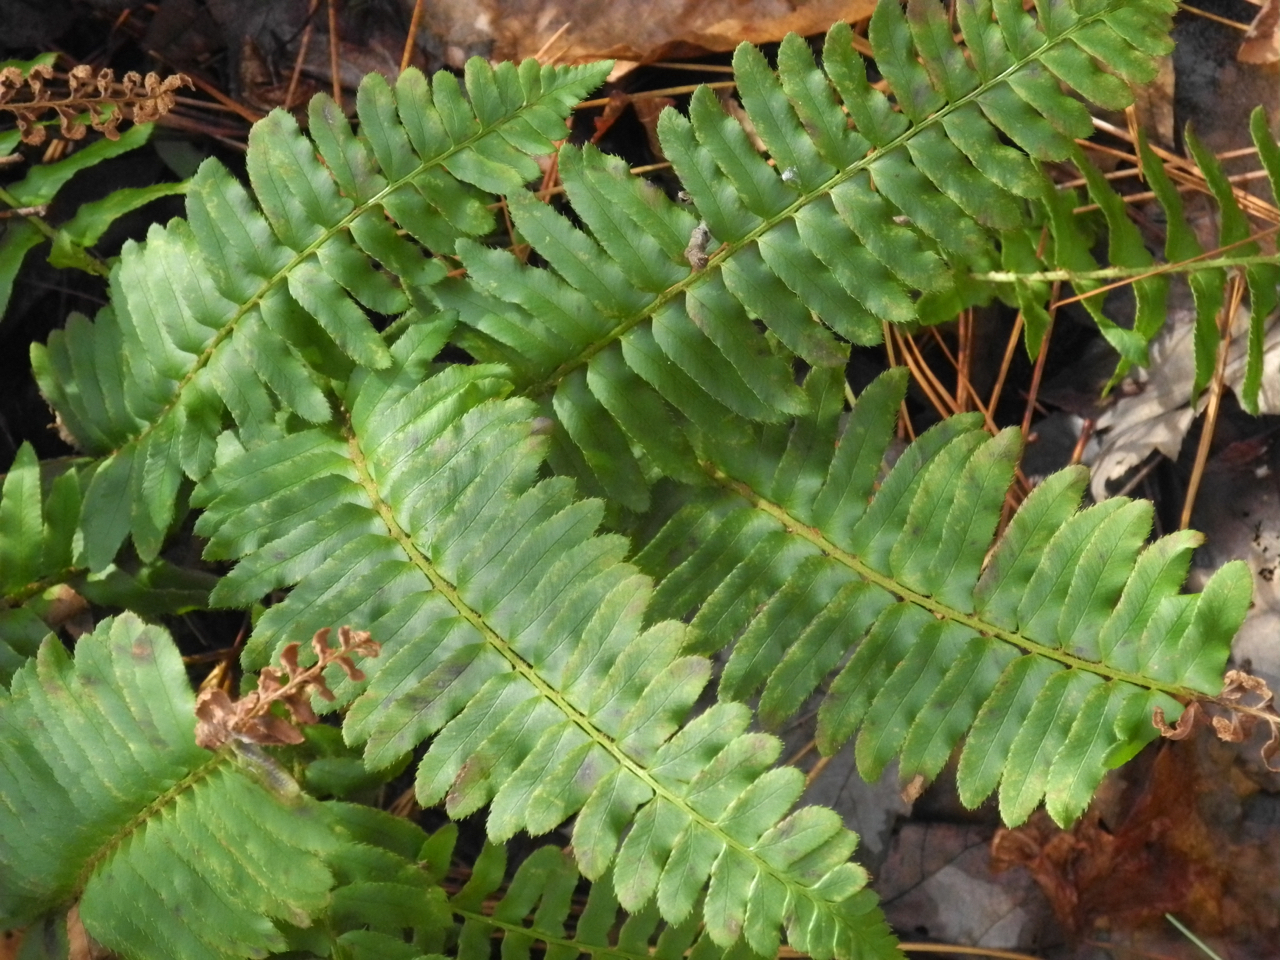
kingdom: Plantae
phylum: Tracheophyta
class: Polypodiopsida
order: Polypodiales
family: Dryopteridaceae
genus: Polystichum
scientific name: Polystichum acrostichoides
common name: Christmas fern
